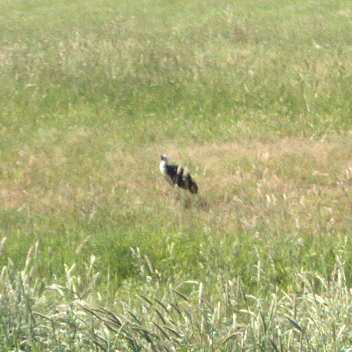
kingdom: Animalia
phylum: Chordata
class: Aves
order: Pelecaniformes
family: Threskiornithidae
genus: Threskiornis
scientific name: Threskiornis spinicollis
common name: Straw-necked ibis
